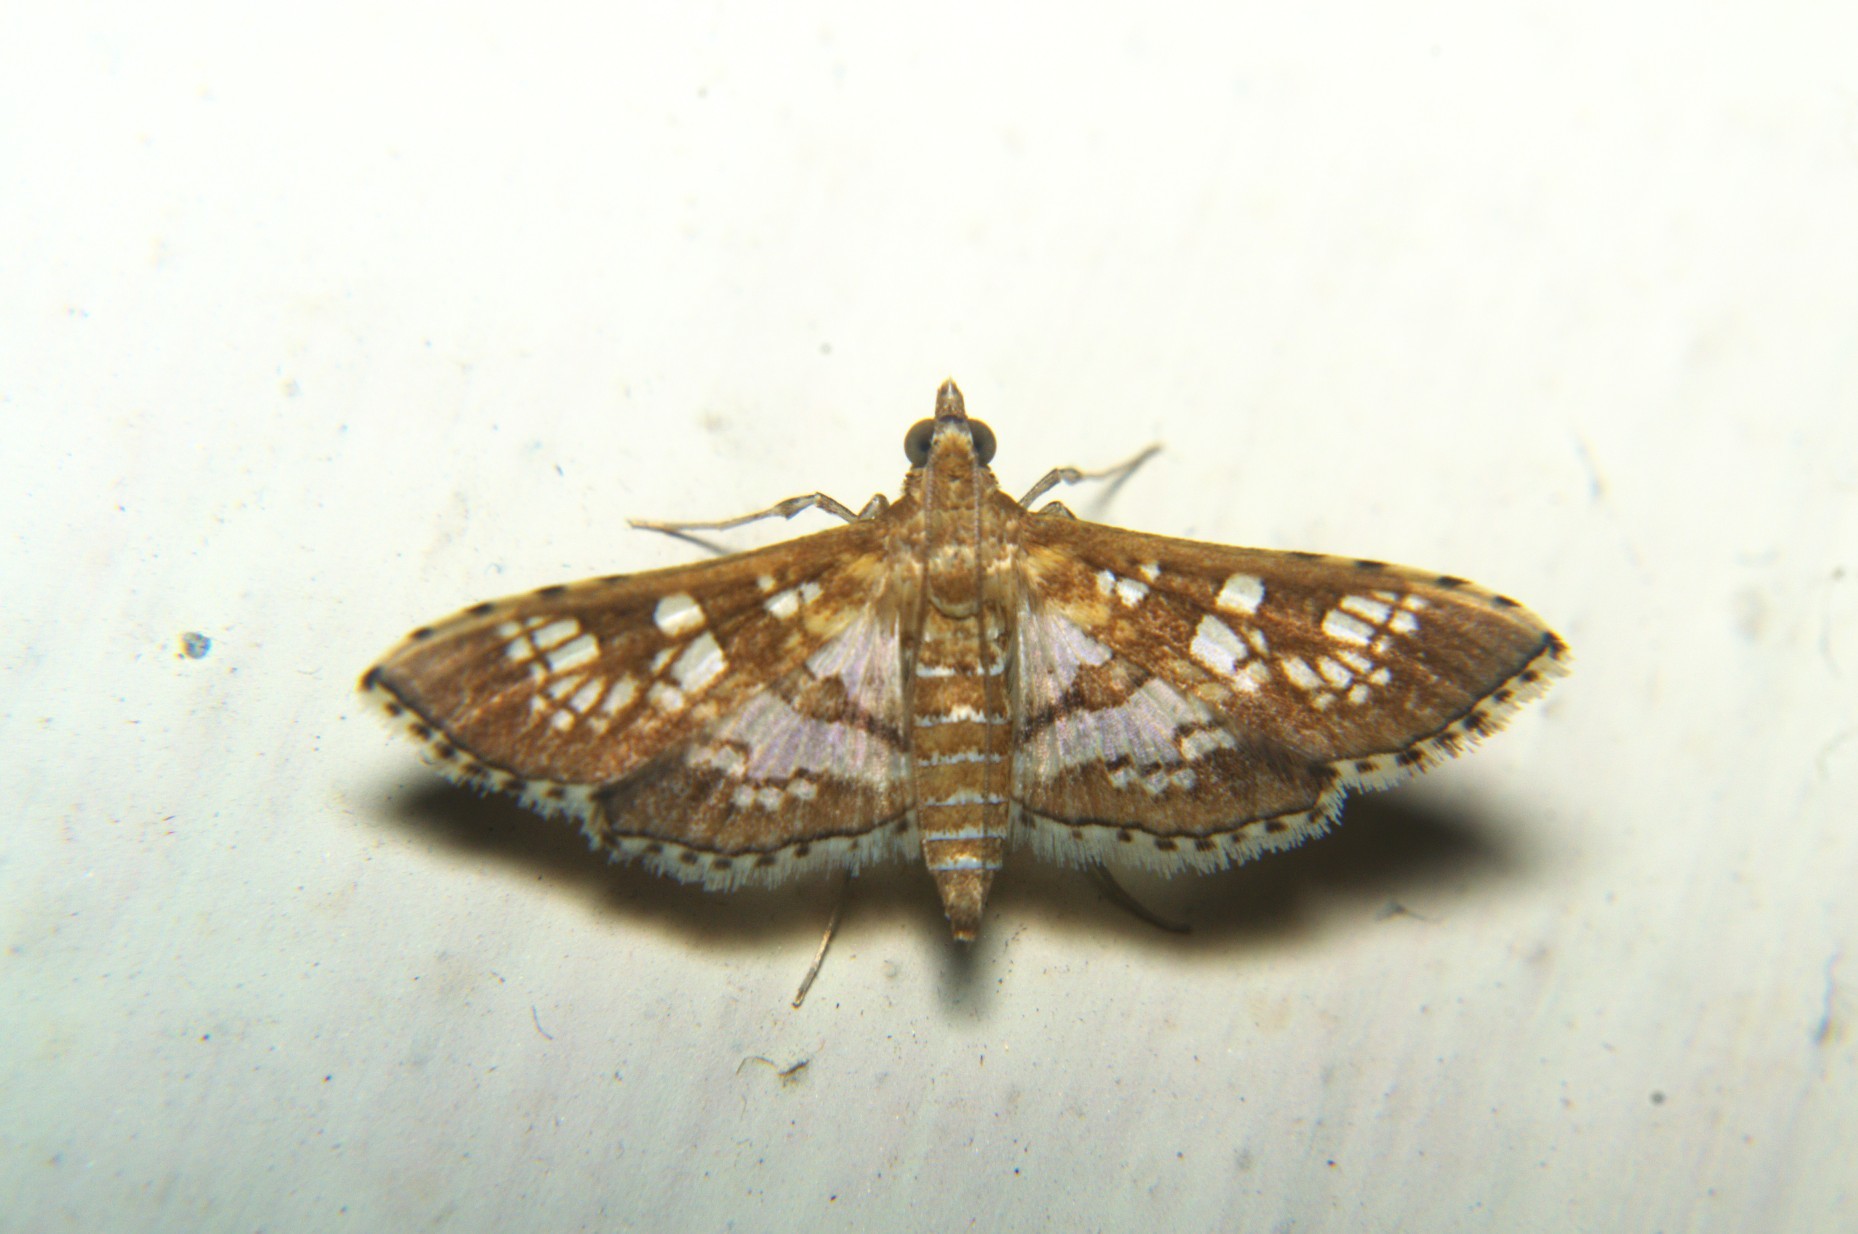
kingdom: Animalia
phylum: Arthropoda
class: Insecta
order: Lepidoptera
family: Crambidae
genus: Sameodes
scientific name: Sameodes cancellalis
